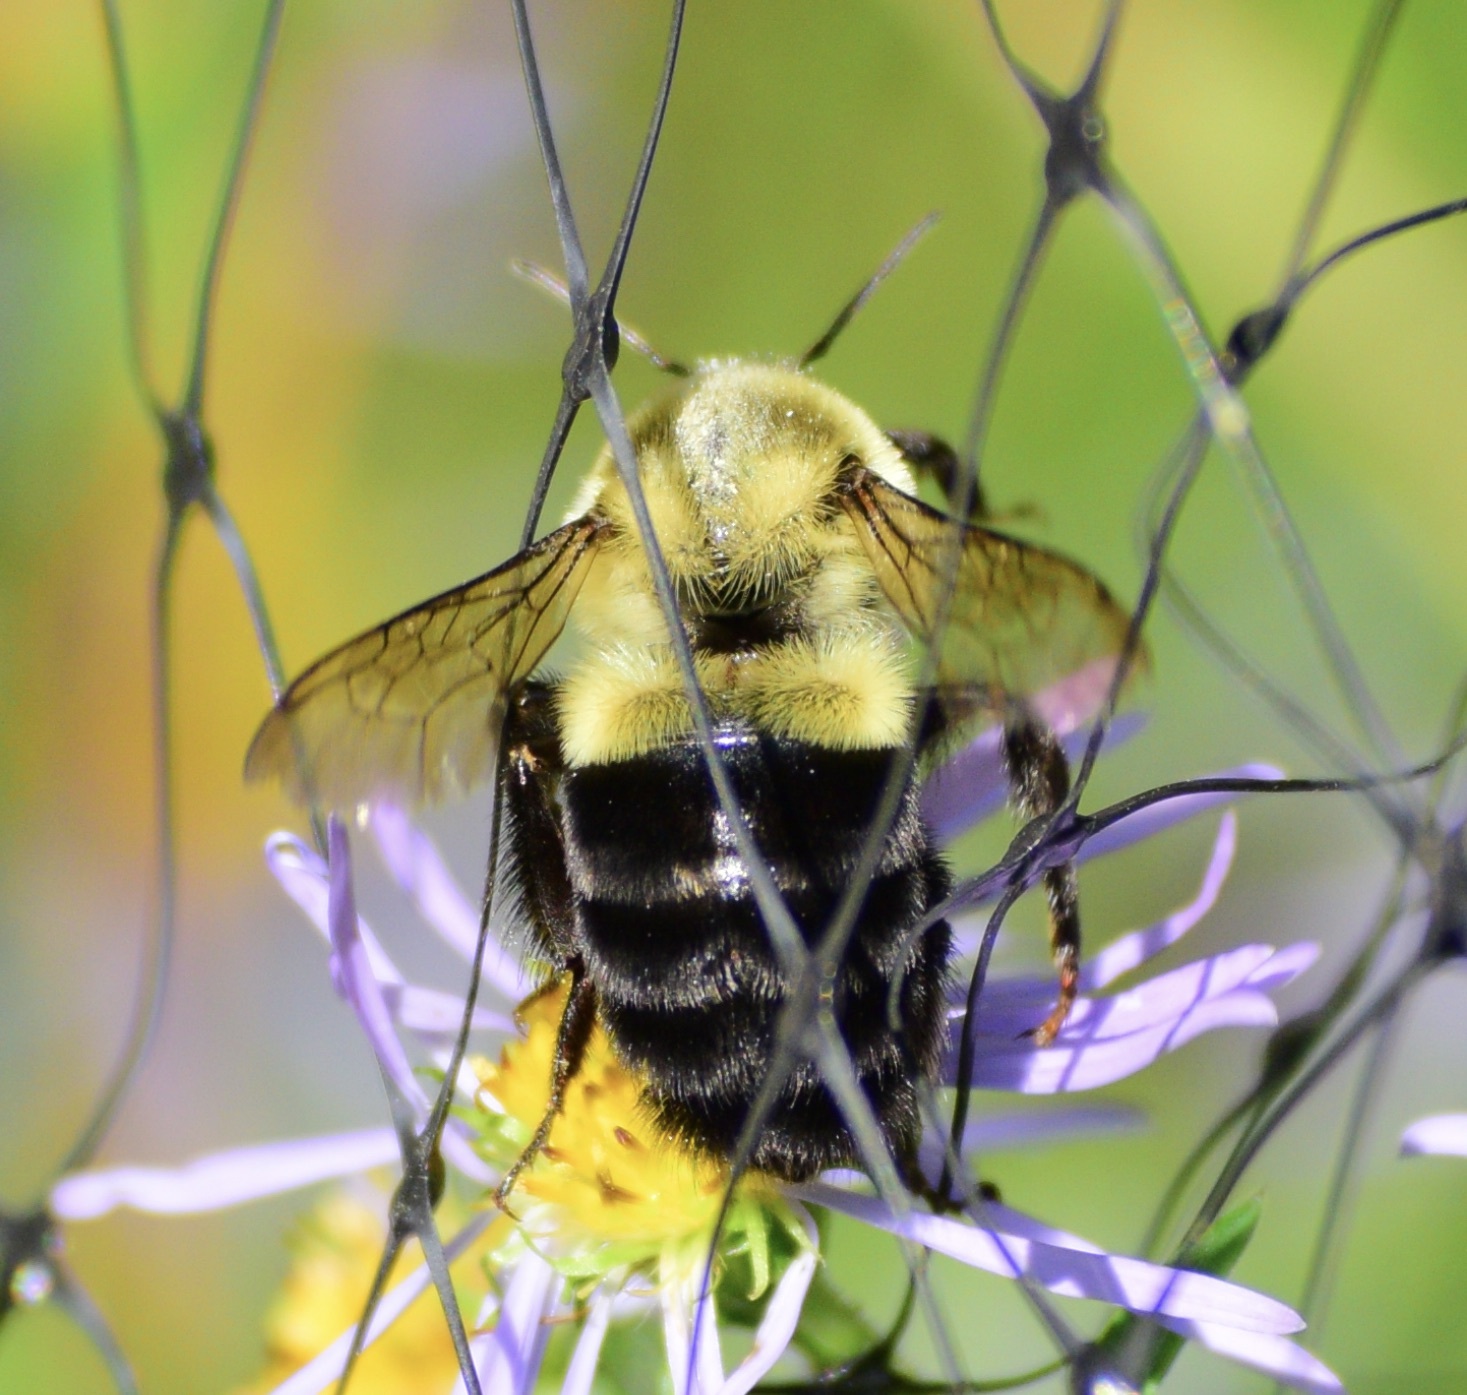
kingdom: Animalia
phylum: Arthropoda
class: Insecta
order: Hymenoptera
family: Apidae
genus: Bombus
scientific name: Bombus impatiens
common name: Common eastern bumble bee
